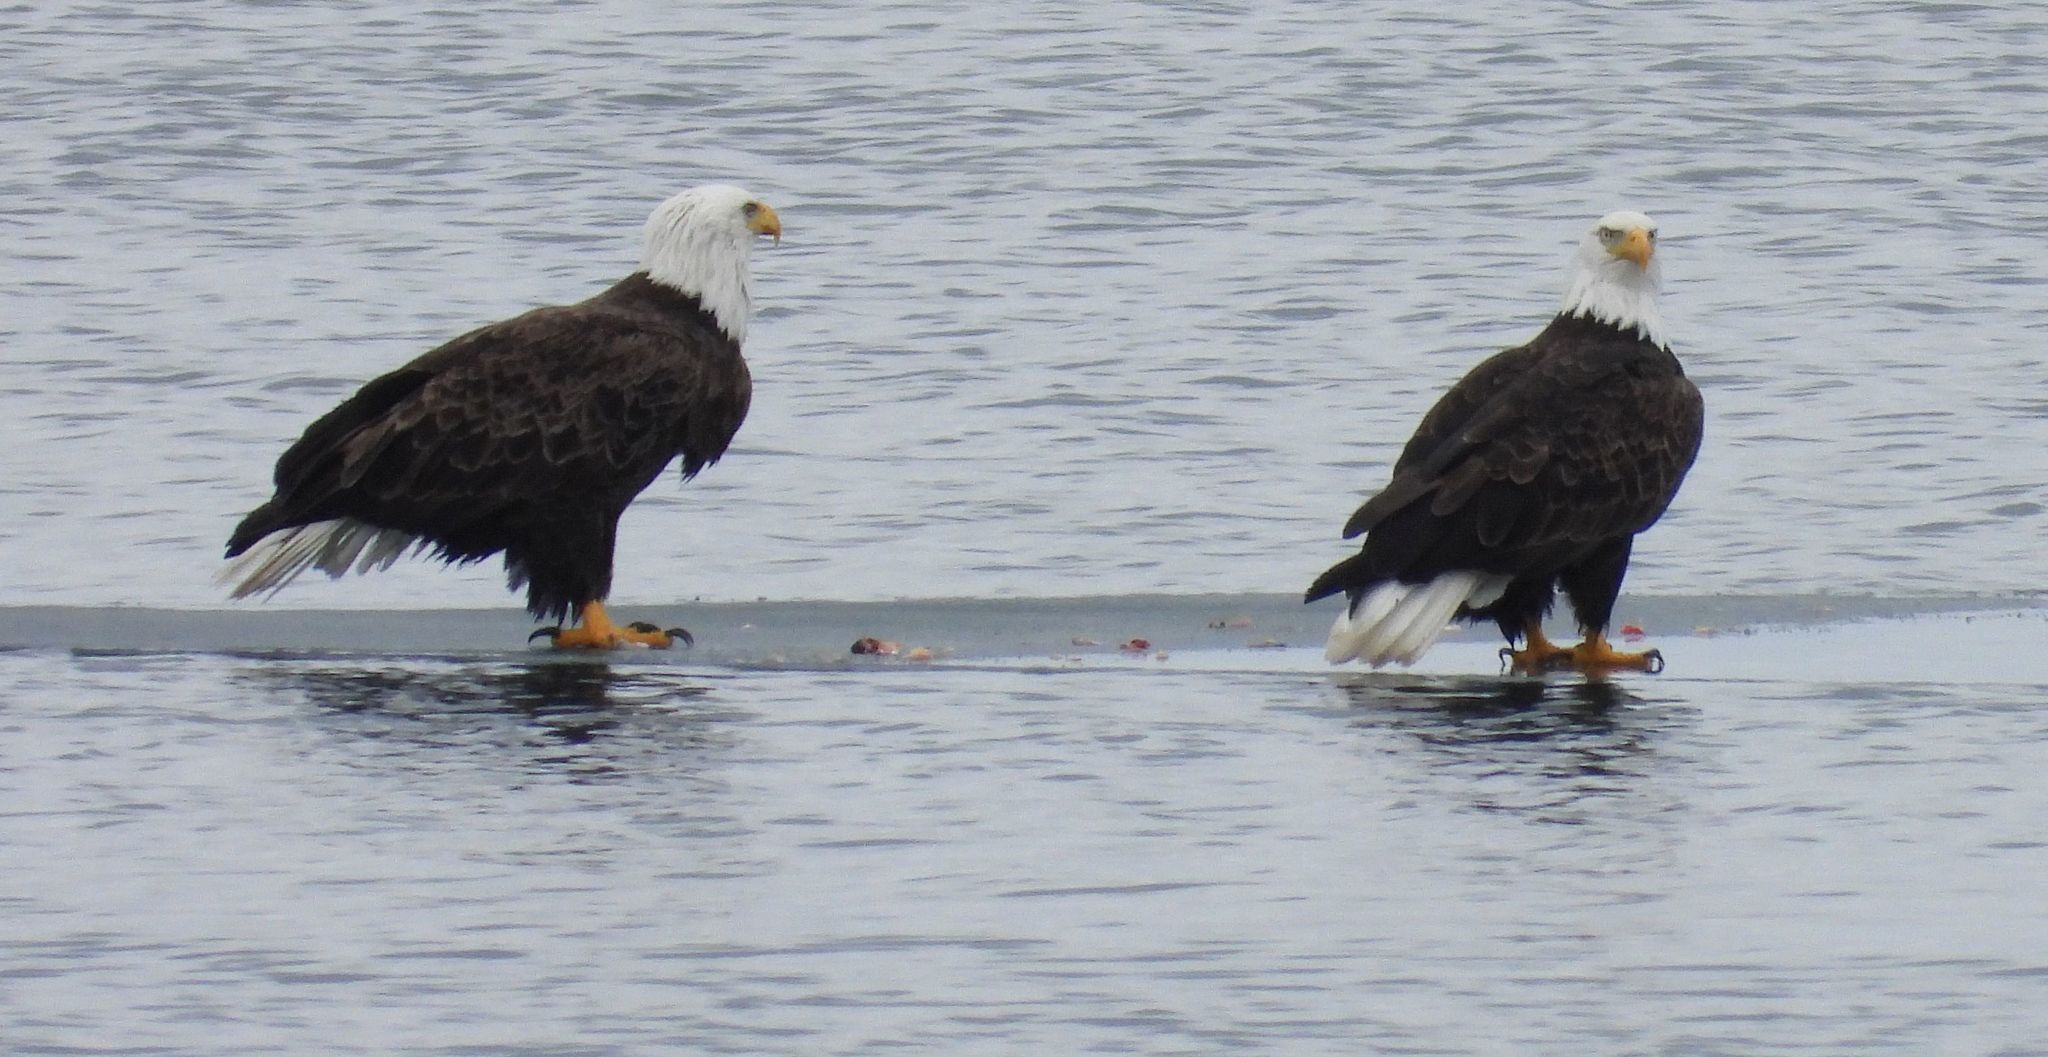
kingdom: Animalia
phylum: Chordata
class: Aves
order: Accipitriformes
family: Accipitridae
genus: Haliaeetus
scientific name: Haliaeetus leucocephalus
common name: Bald eagle
